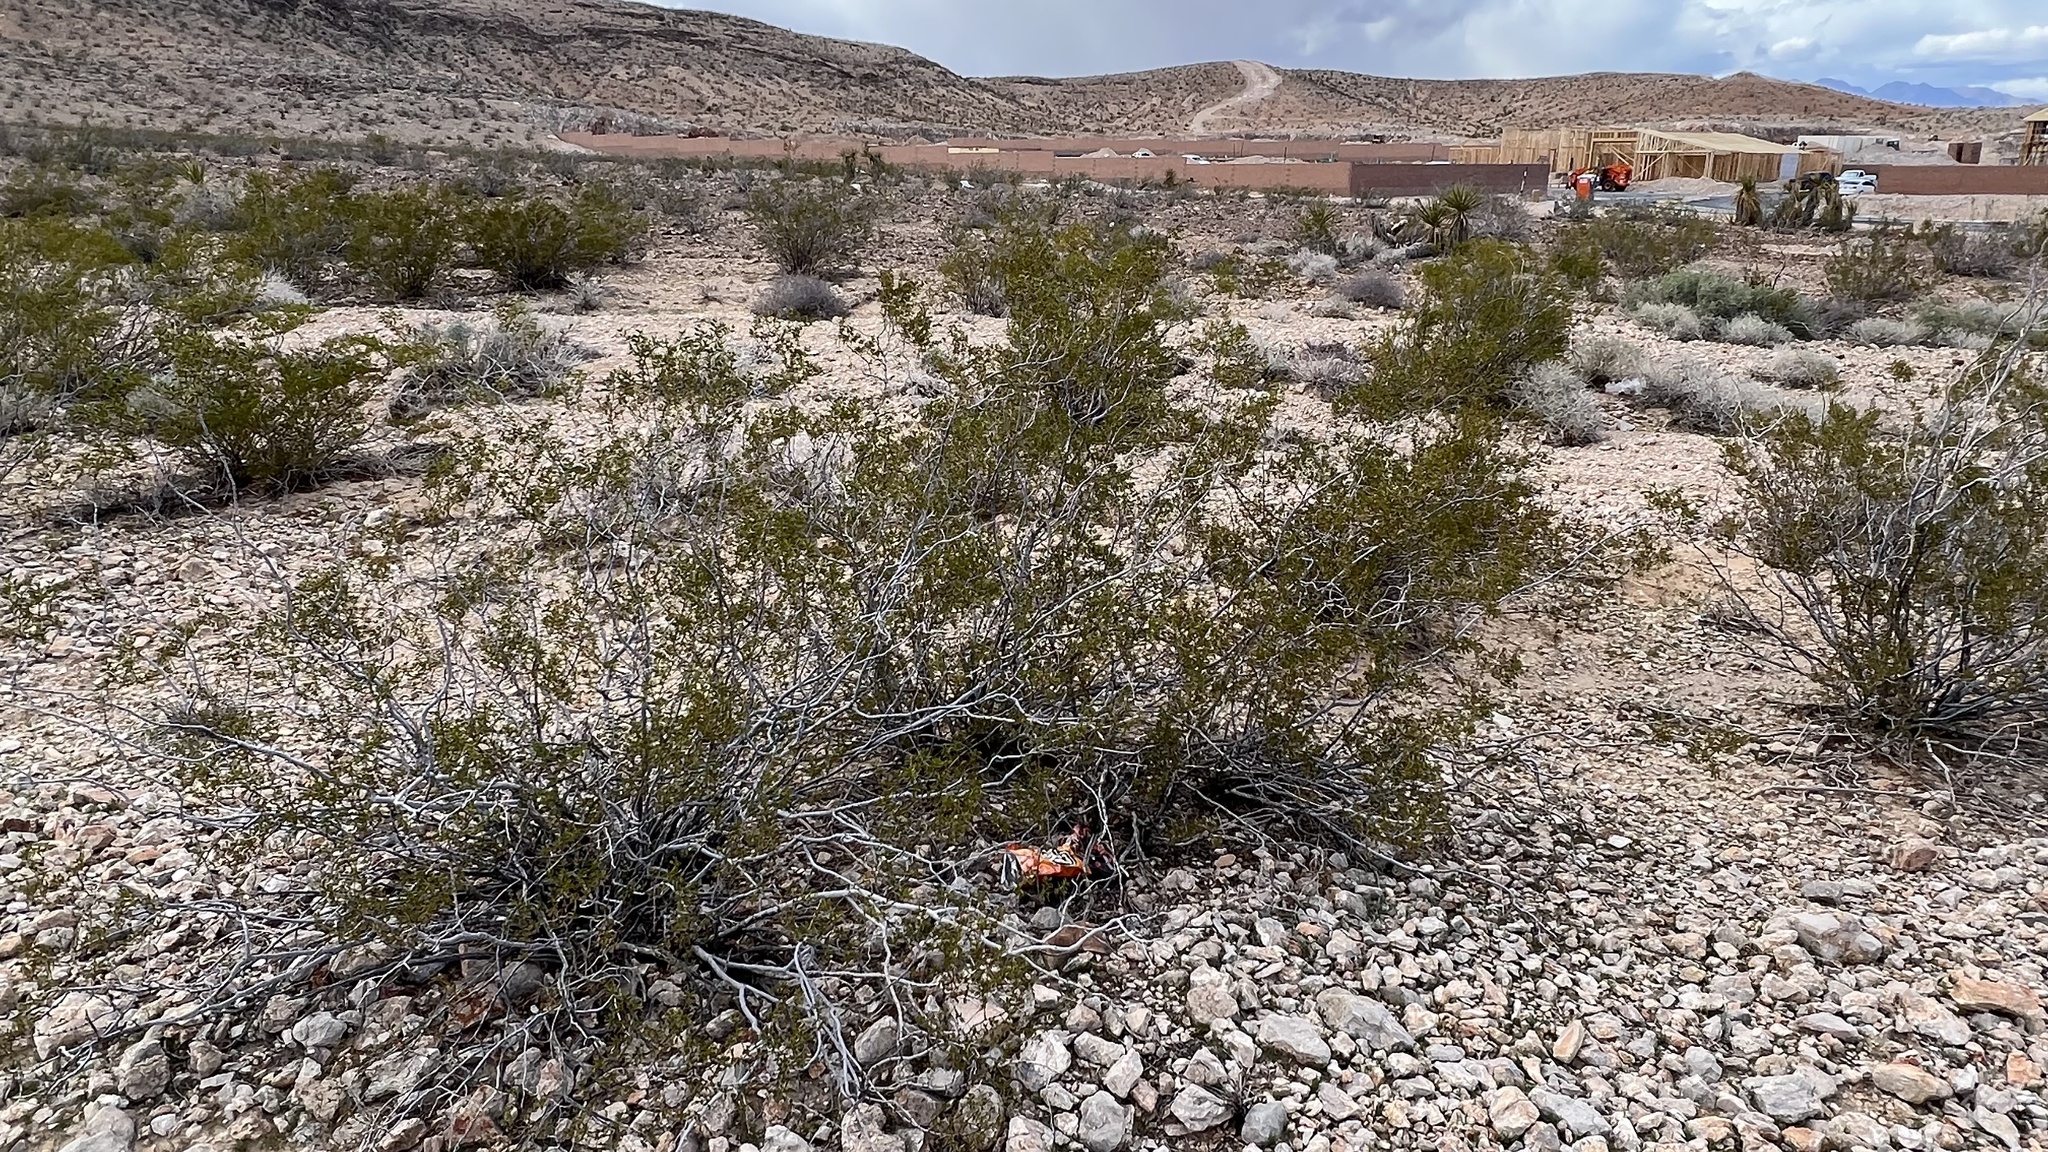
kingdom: Plantae
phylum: Tracheophyta
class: Magnoliopsida
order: Zygophyllales
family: Zygophyllaceae
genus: Larrea
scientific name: Larrea tridentata
